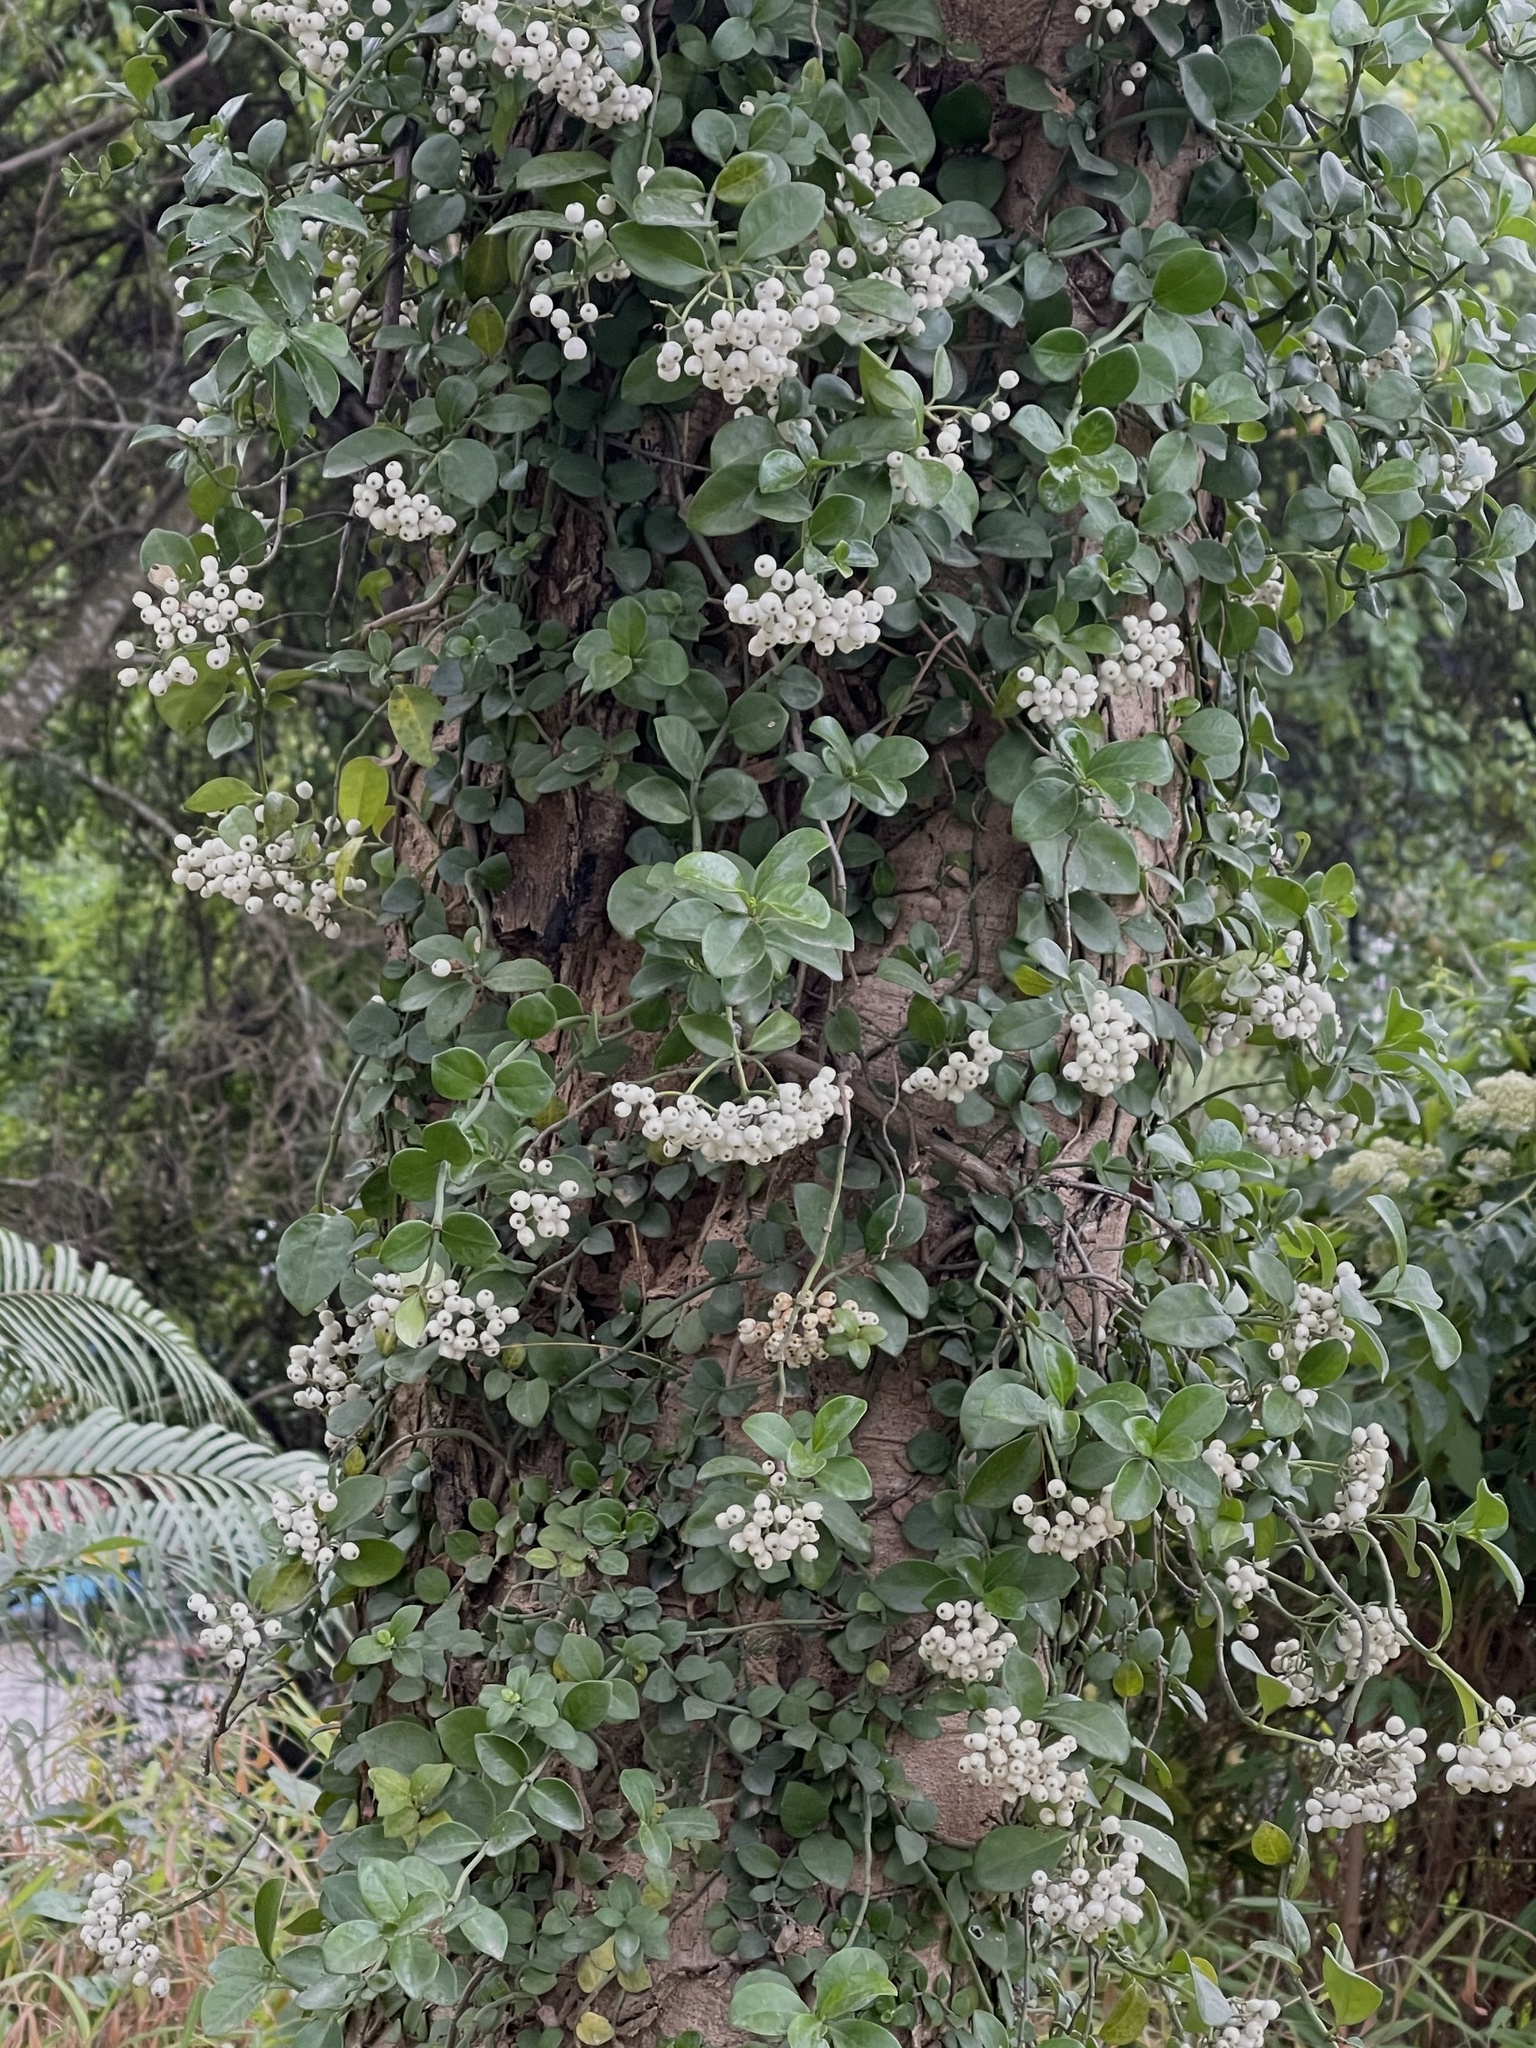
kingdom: Plantae
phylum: Tracheophyta
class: Magnoliopsida
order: Gentianales
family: Rubiaceae
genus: Psychotria
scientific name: Psychotria serpens
